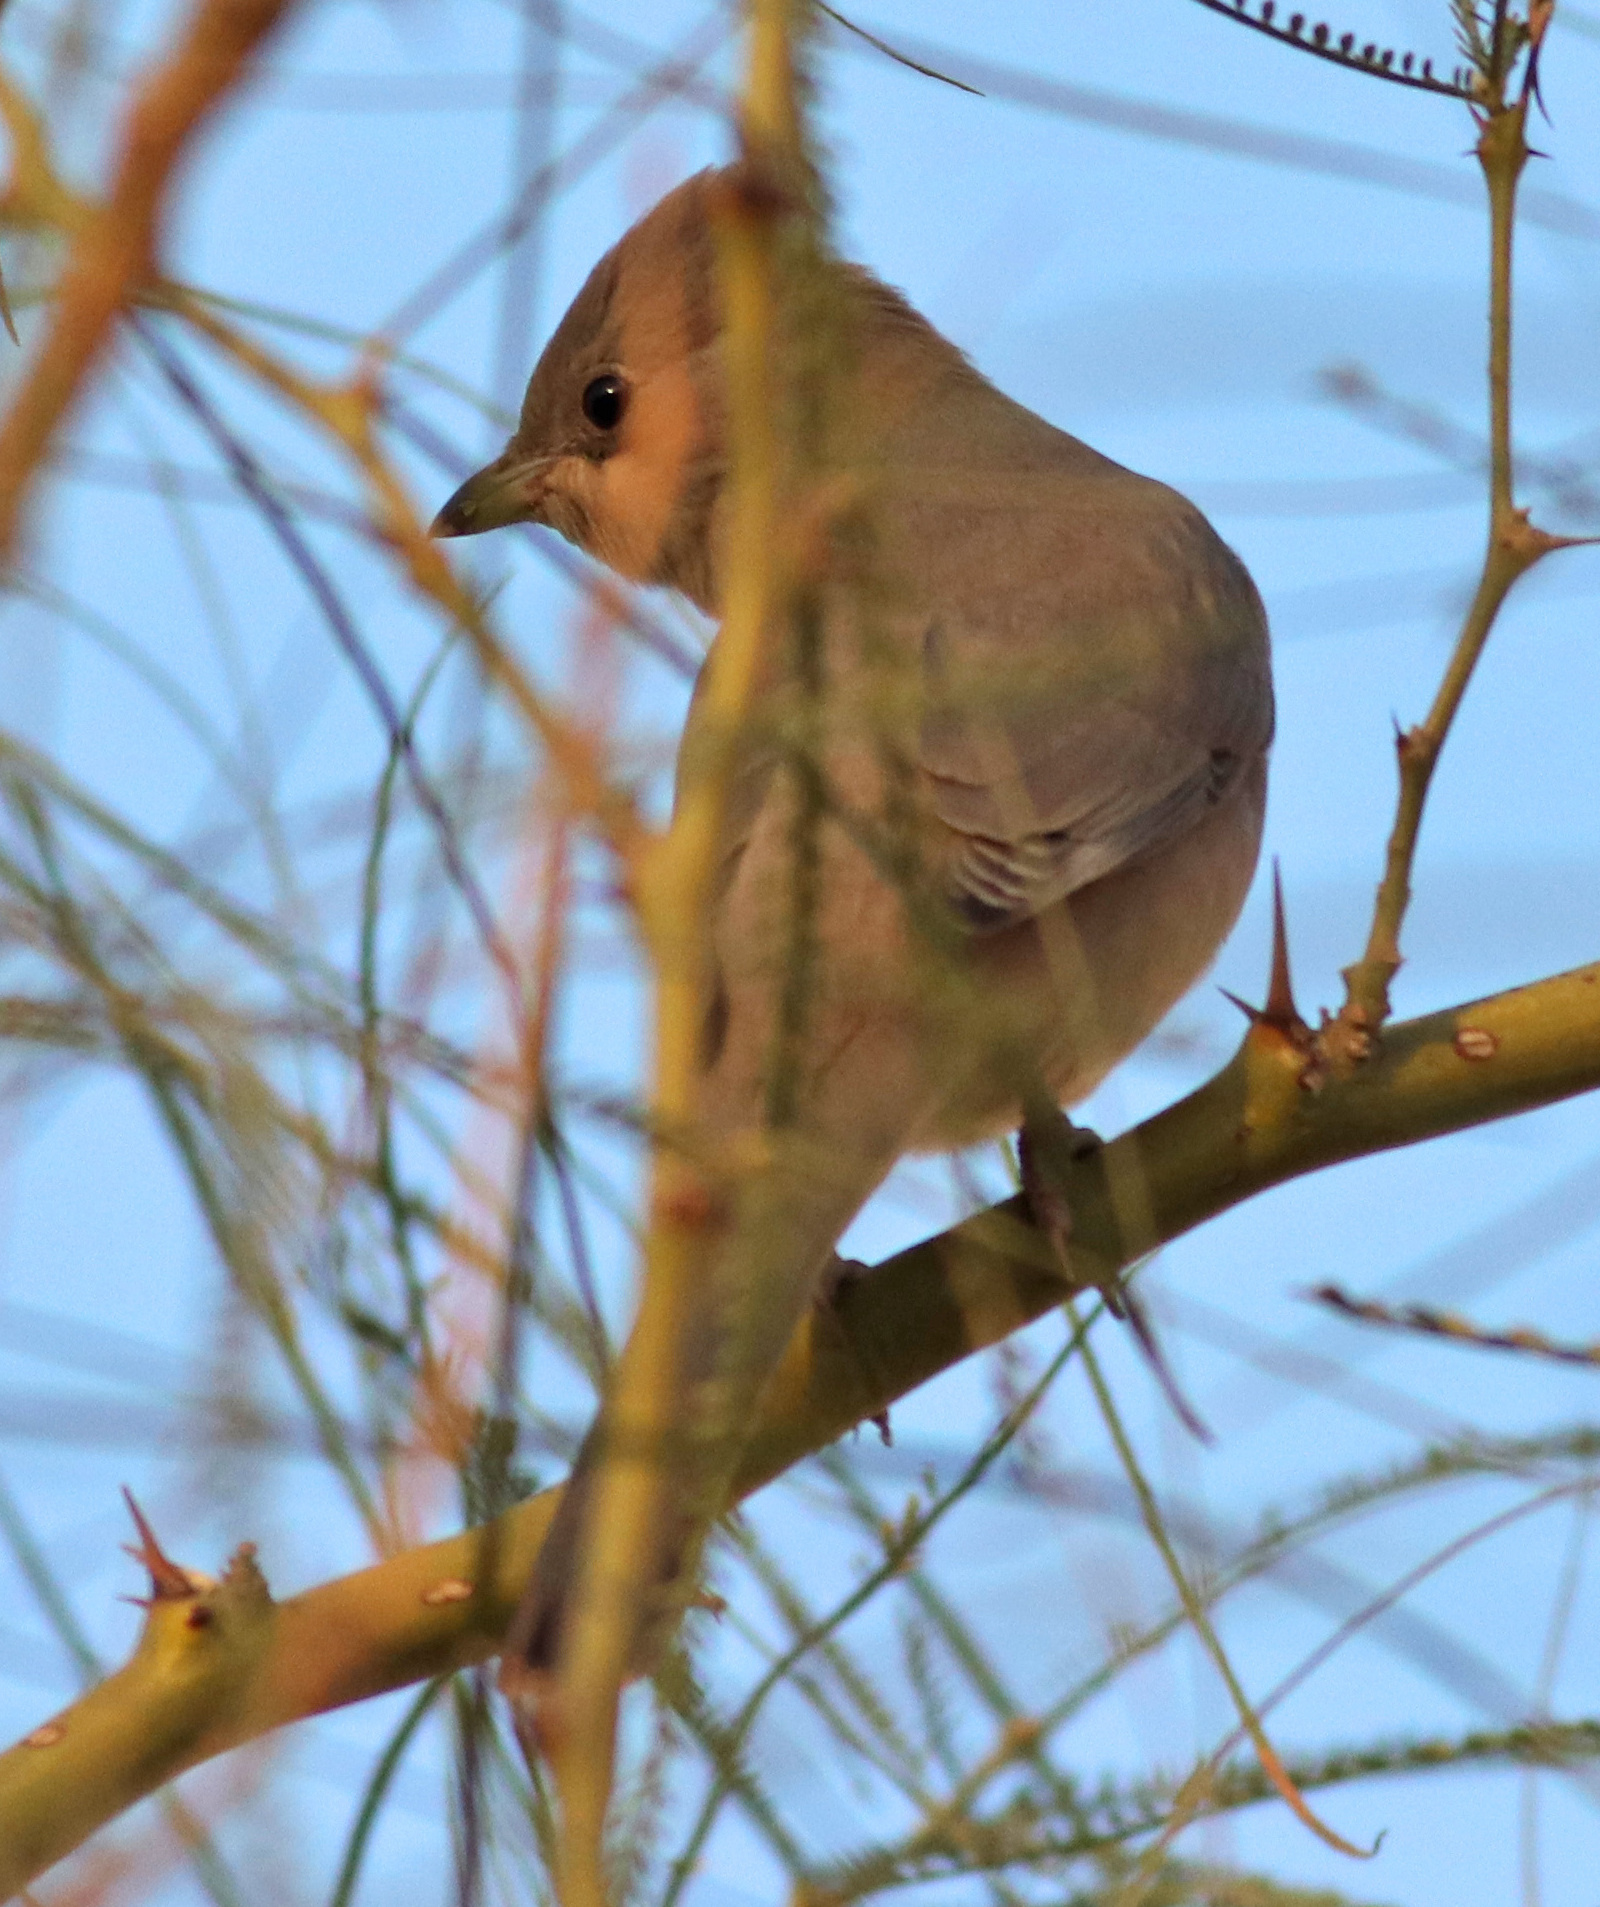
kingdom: Animalia
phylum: Chordata
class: Aves
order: Passeriformes
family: Hypocoliidae
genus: Hypocolius
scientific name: Hypocolius ampelinus
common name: Hypocolius
